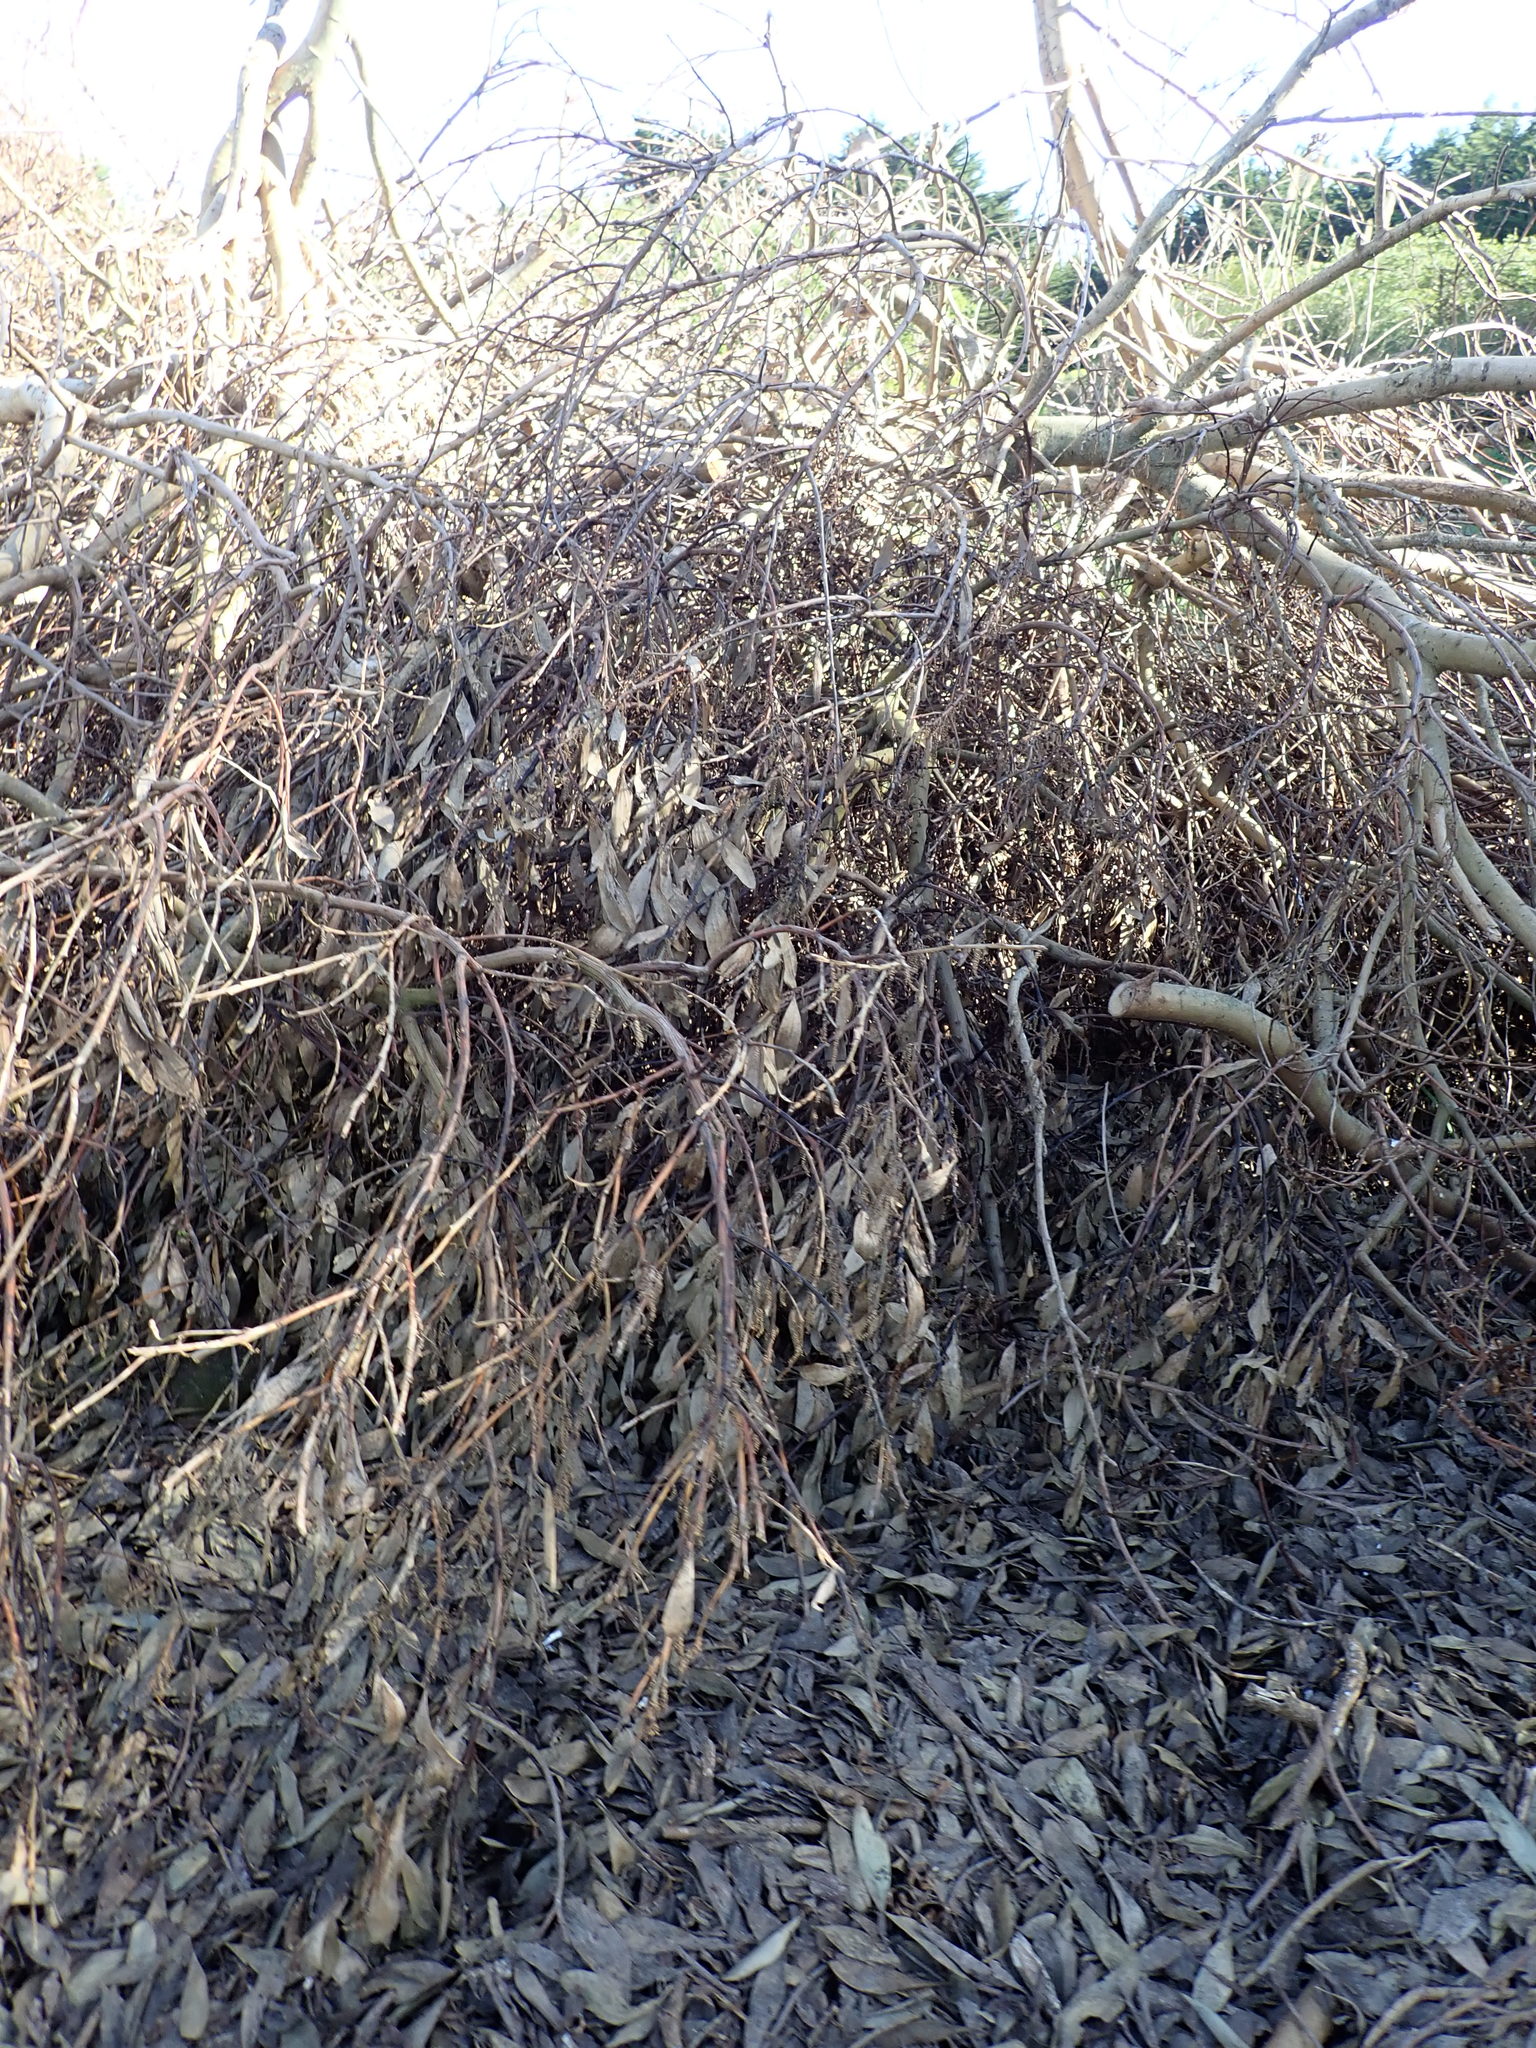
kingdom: Plantae
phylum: Tracheophyta
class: Magnoliopsida
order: Fabales
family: Fabaceae
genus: Acacia
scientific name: Acacia longifolia
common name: Sydney golden wattle
